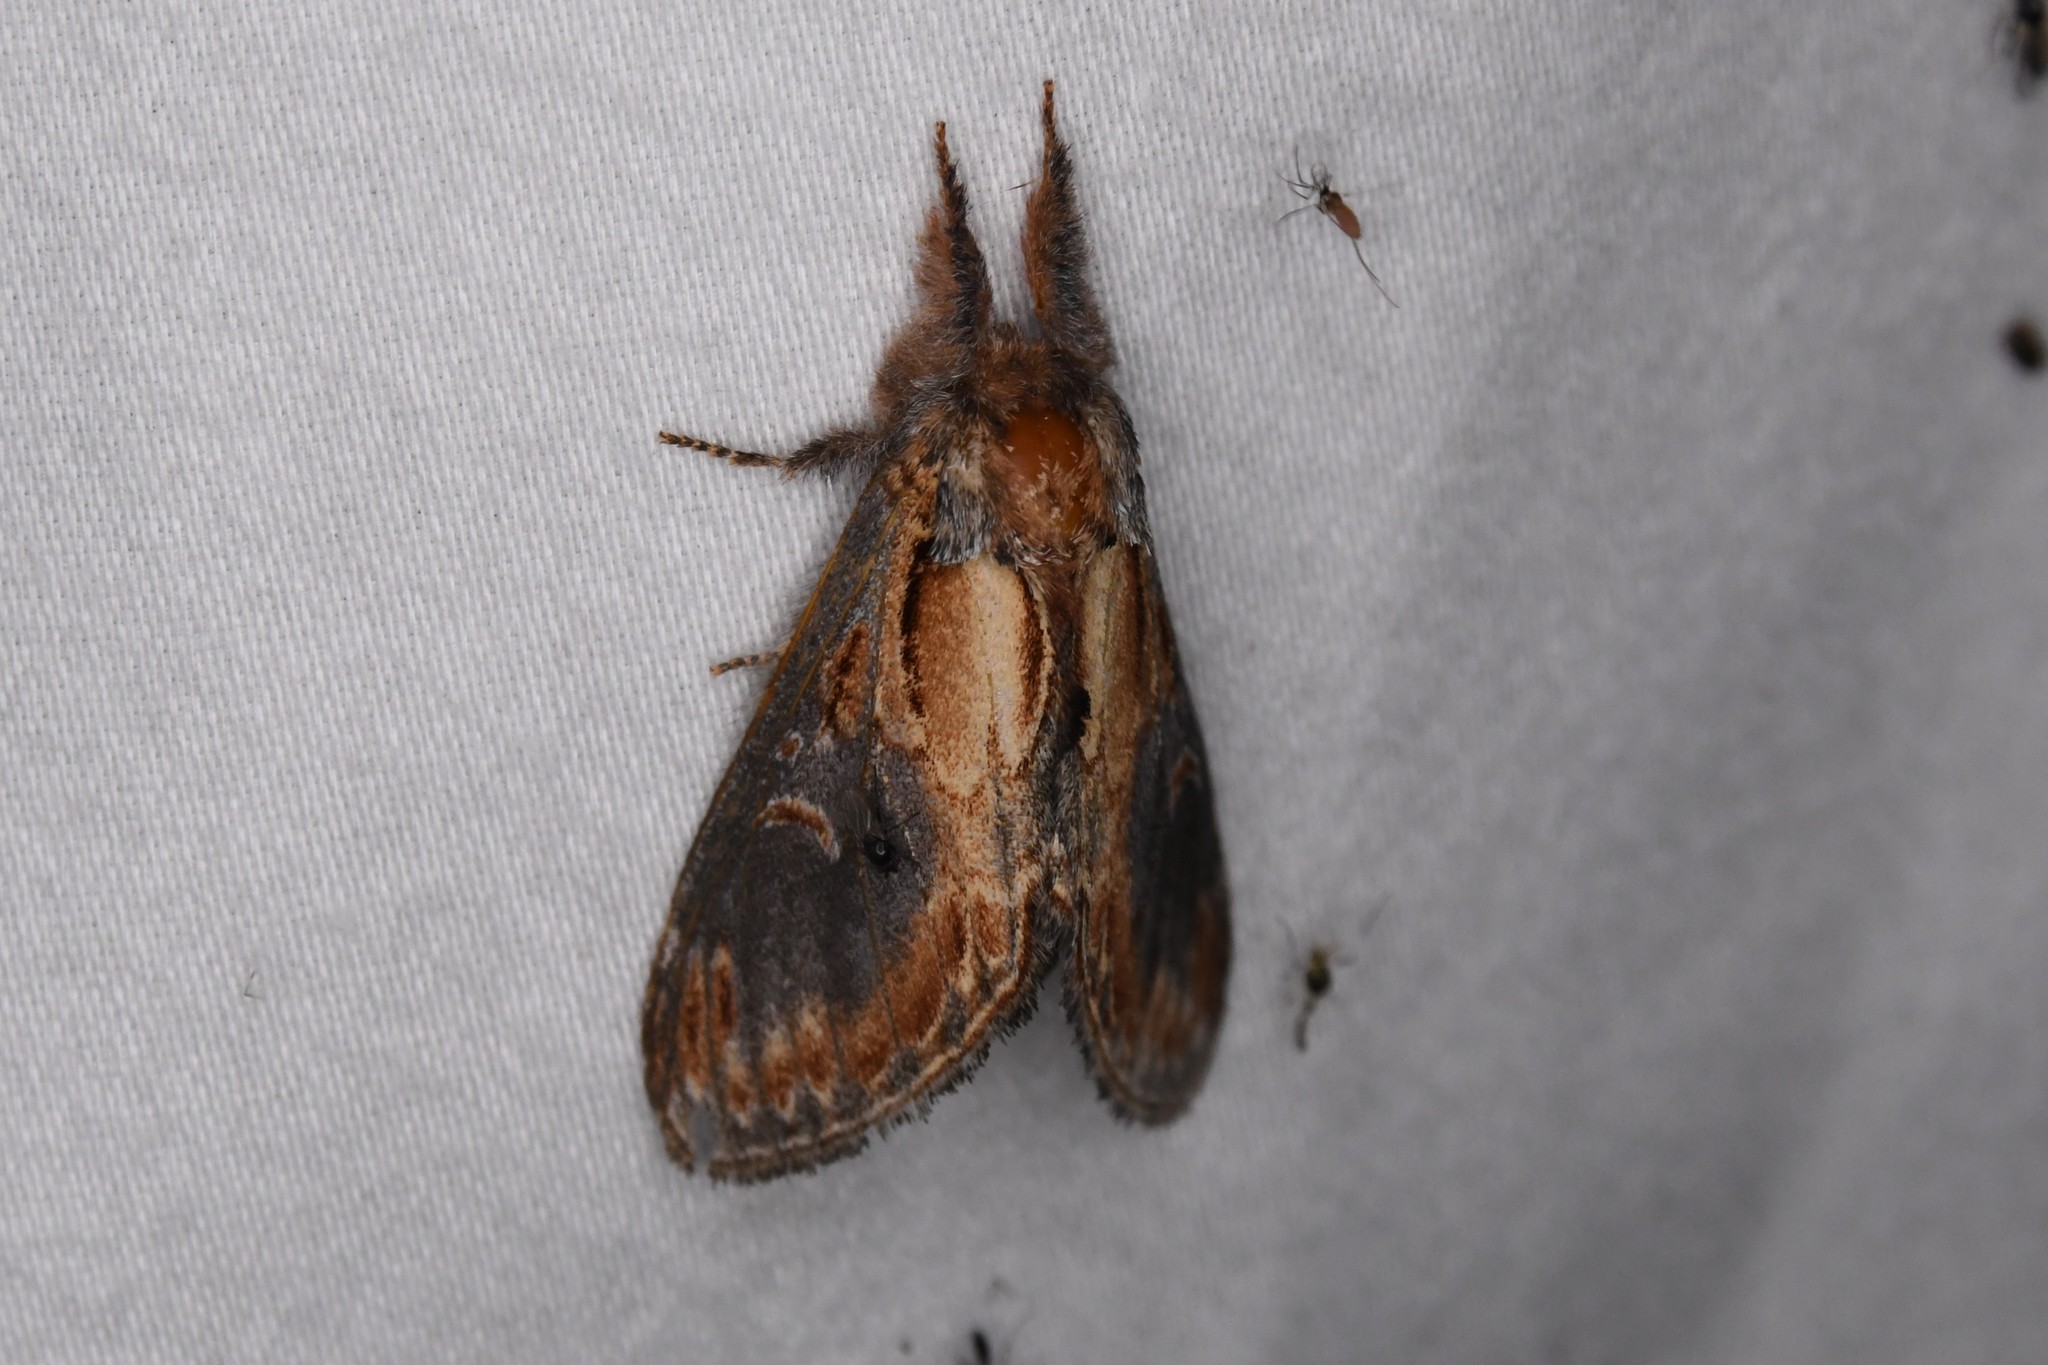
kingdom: Animalia
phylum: Arthropoda
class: Insecta
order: Lepidoptera
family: Notodontidae
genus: Notodonta
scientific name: Notodonta scitipennis
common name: Finned-willow prominent moth
